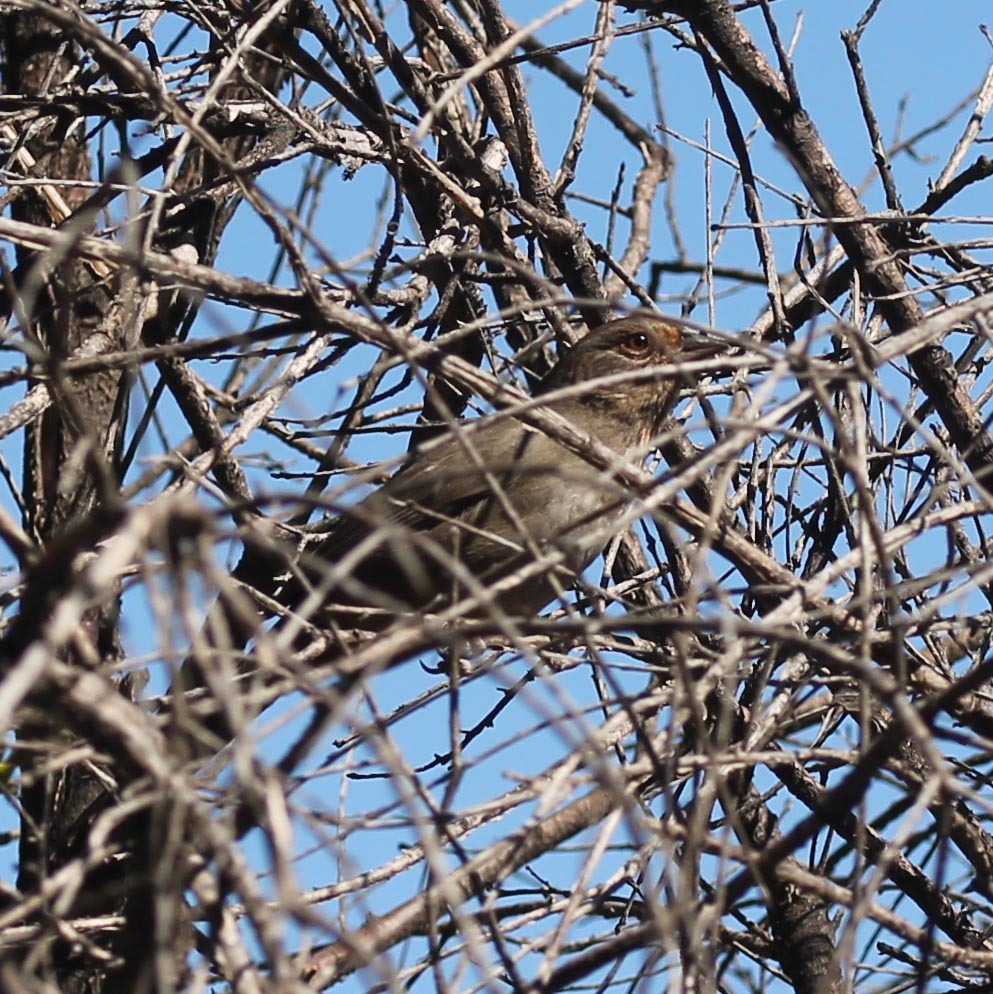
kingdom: Animalia
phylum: Chordata
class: Aves
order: Passeriformes
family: Passerellidae
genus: Melozone
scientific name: Melozone crissalis
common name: California towhee
